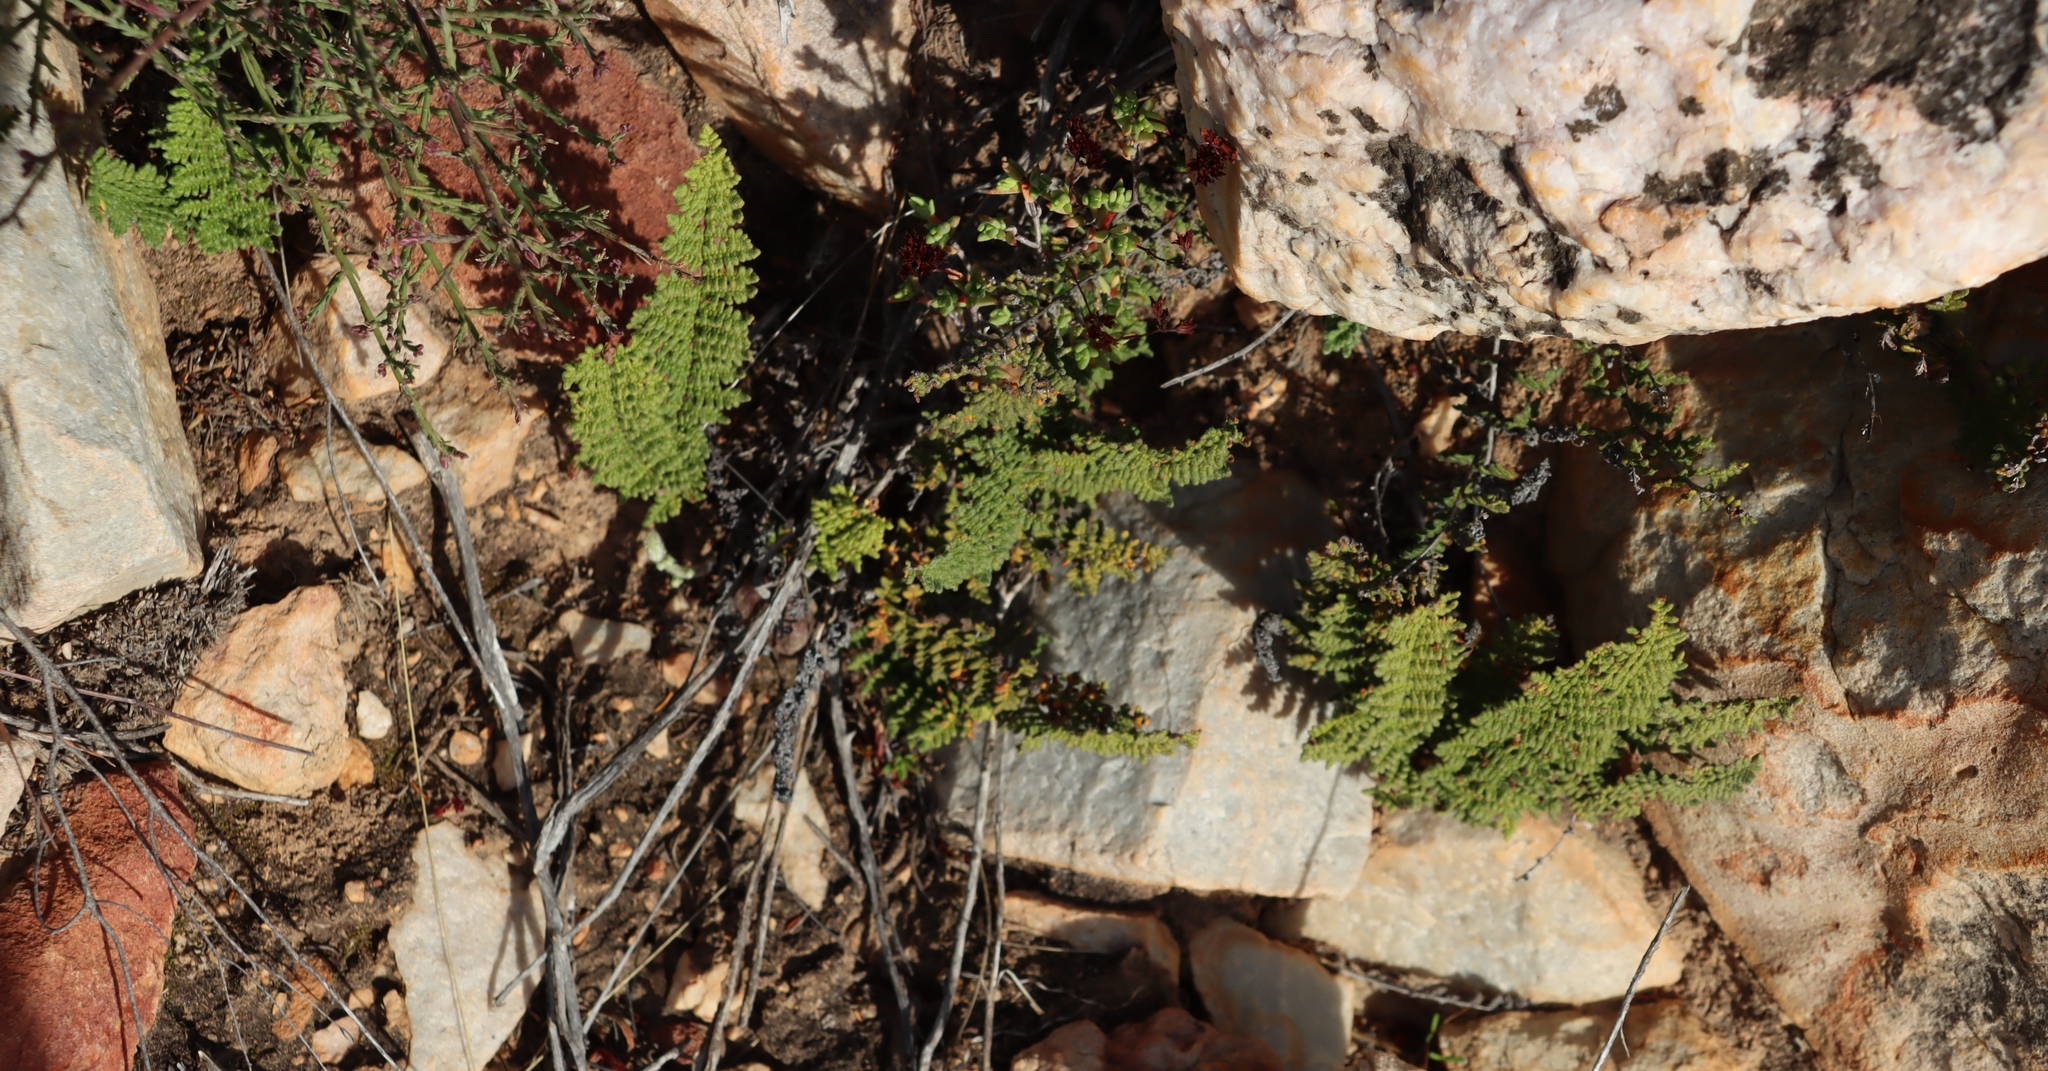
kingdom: Plantae
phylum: Tracheophyta
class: Polypodiopsida
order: Polypodiales
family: Pteridaceae
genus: Cheilanthes
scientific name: Cheilanthes hirta
